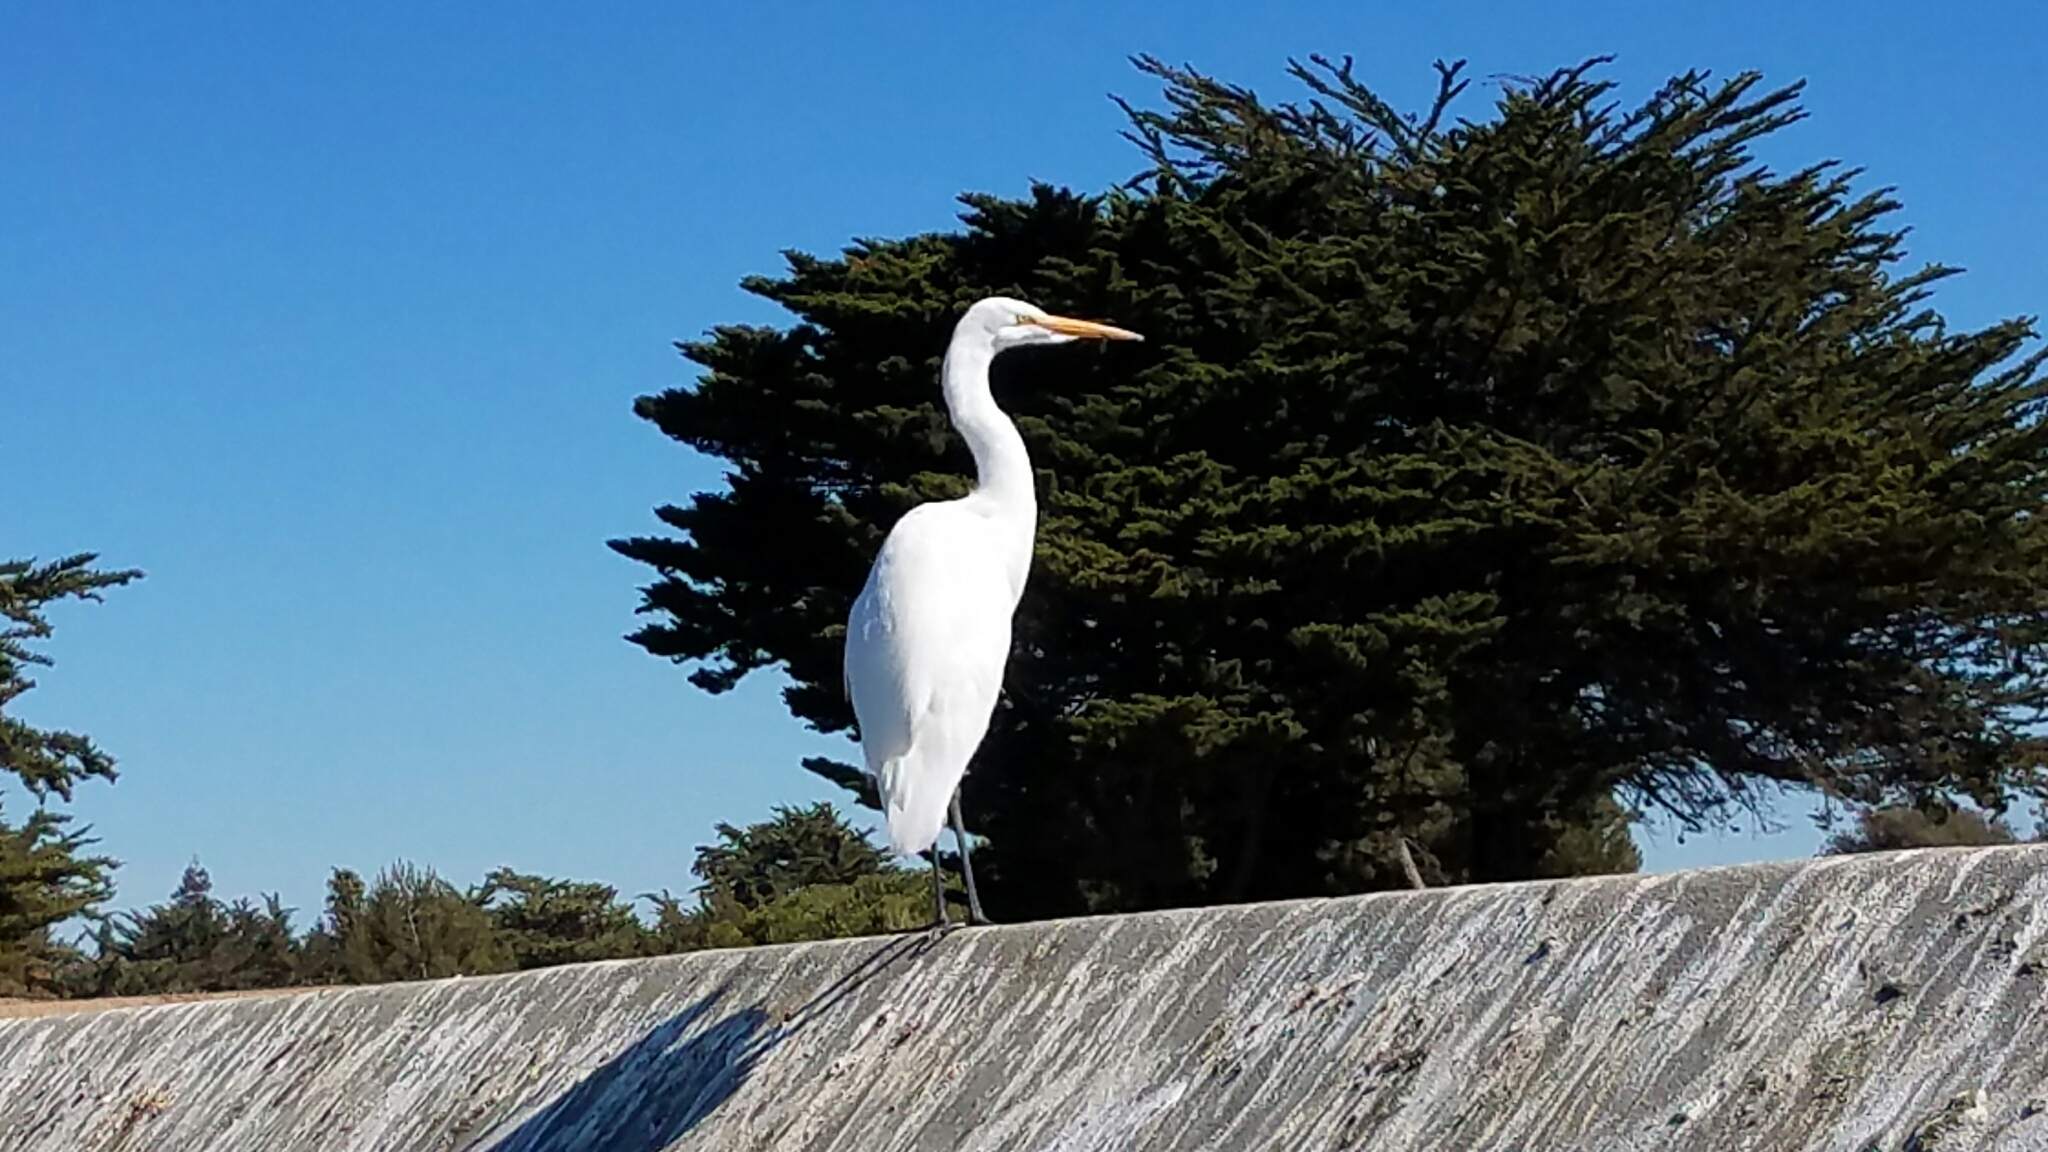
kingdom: Animalia
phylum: Chordata
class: Aves
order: Pelecaniformes
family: Ardeidae
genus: Ardea
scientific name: Ardea alba
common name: Great egret
